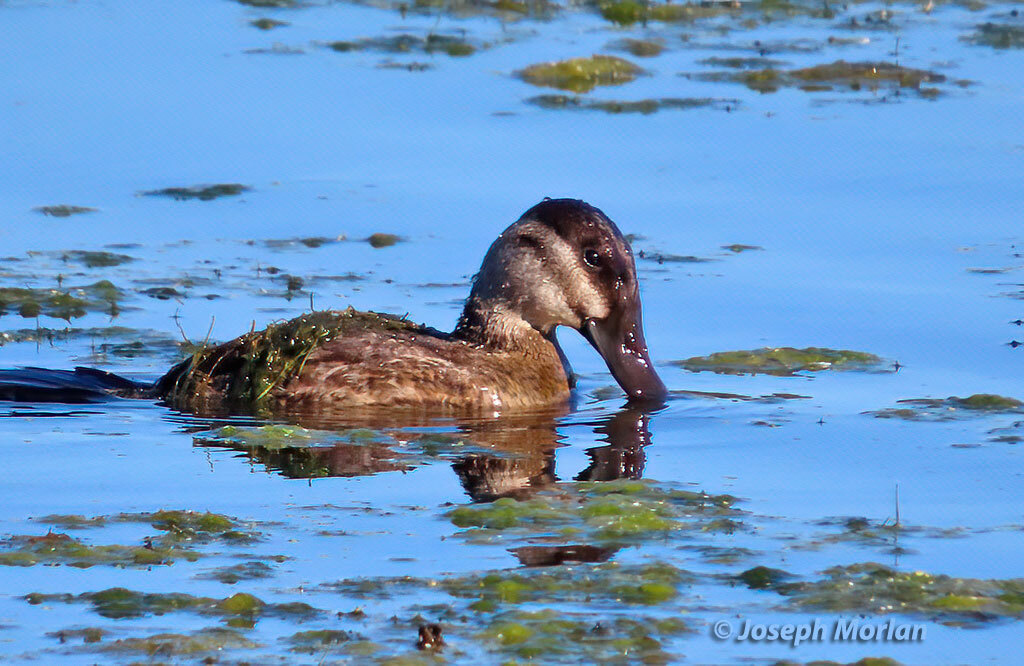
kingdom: Animalia
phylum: Chordata
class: Aves
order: Anseriformes
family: Anatidae
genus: Oxyura
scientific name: Oxyura jamaicensis
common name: Ruddy duck
